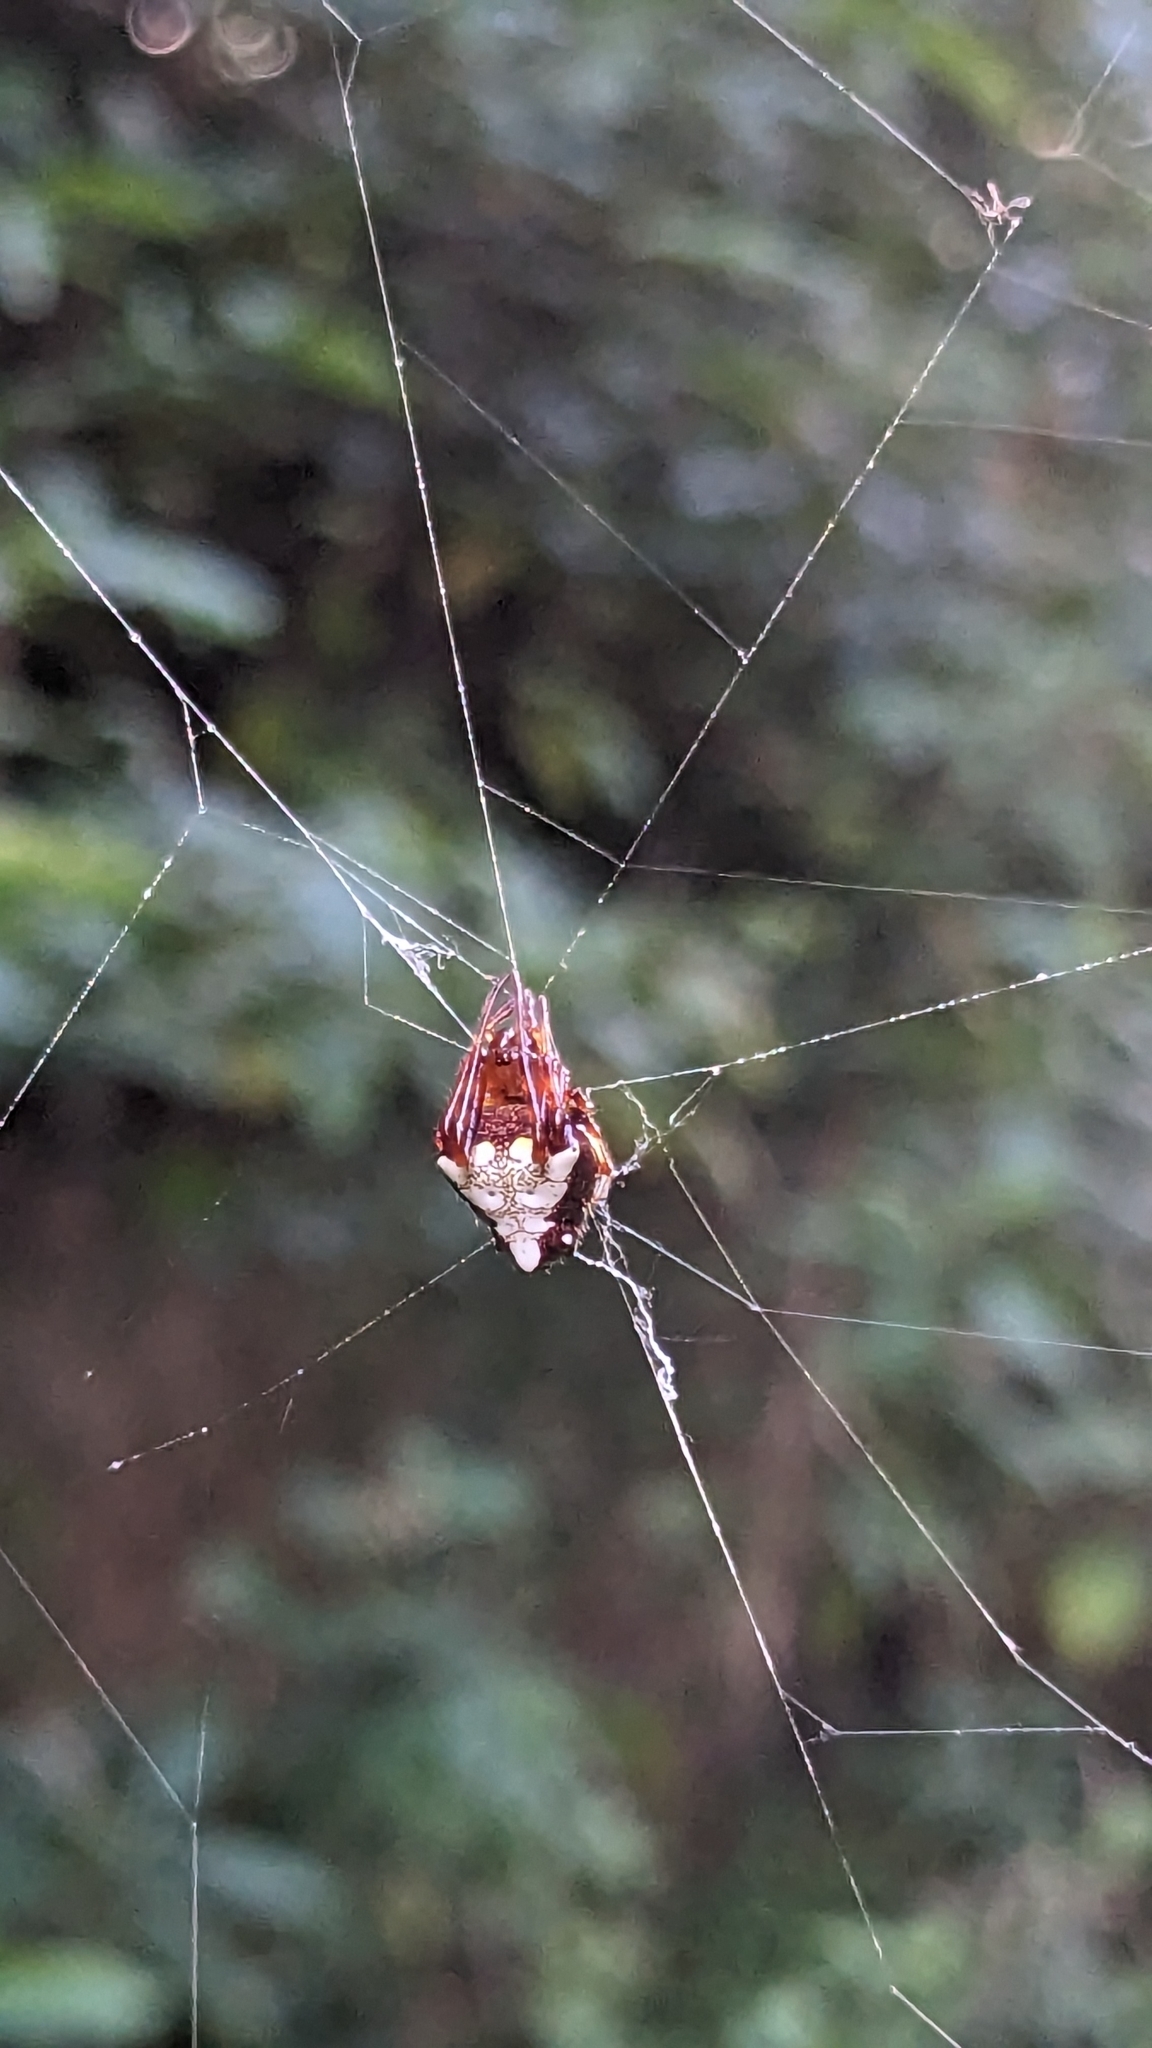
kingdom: Animalia
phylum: Arthropoda
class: Arachnida
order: Araneae
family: Araneidae
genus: Verrucosa
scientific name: Verrucosa arenata
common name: Orb weavers
